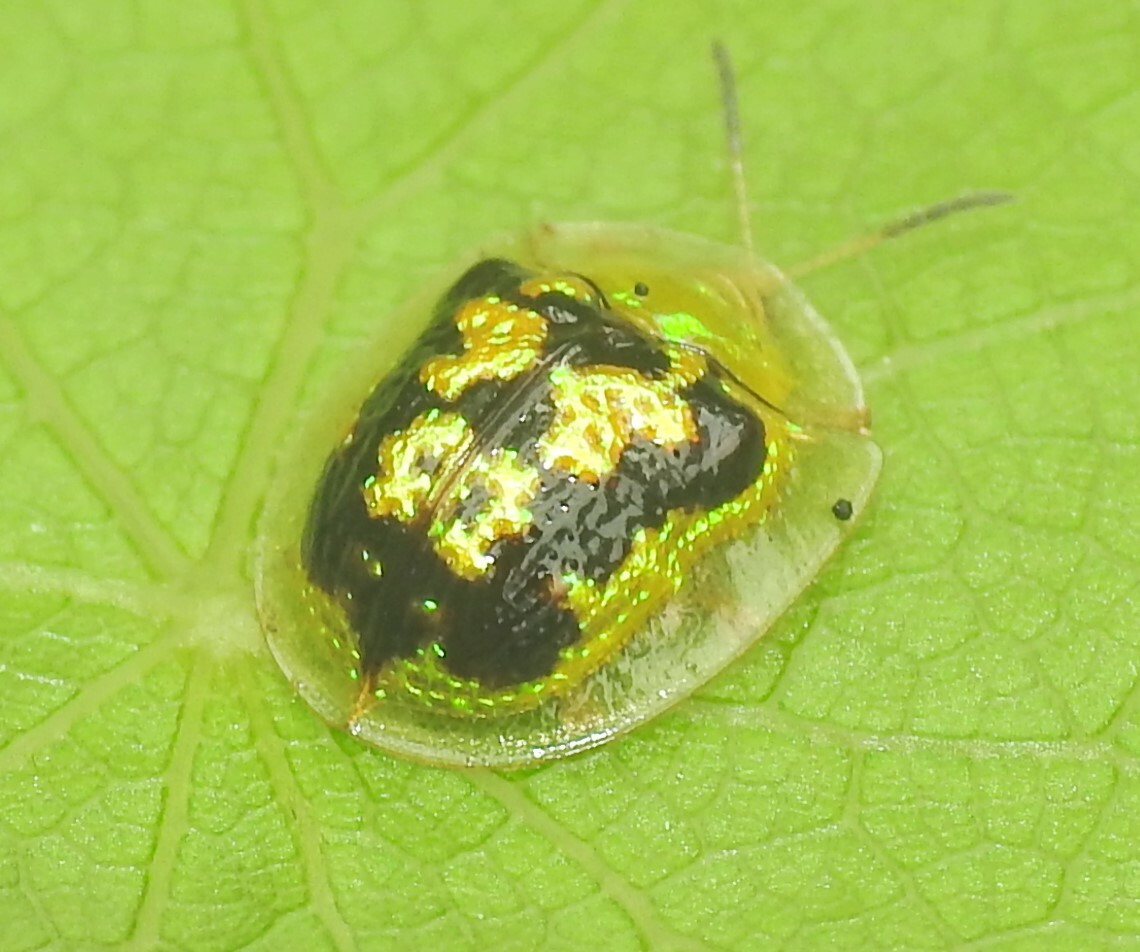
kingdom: Animalia
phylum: Arthropoda
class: Insecta
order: Coleoptera
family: Chrysomelidae
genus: Cassida
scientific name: Cassida diomma
